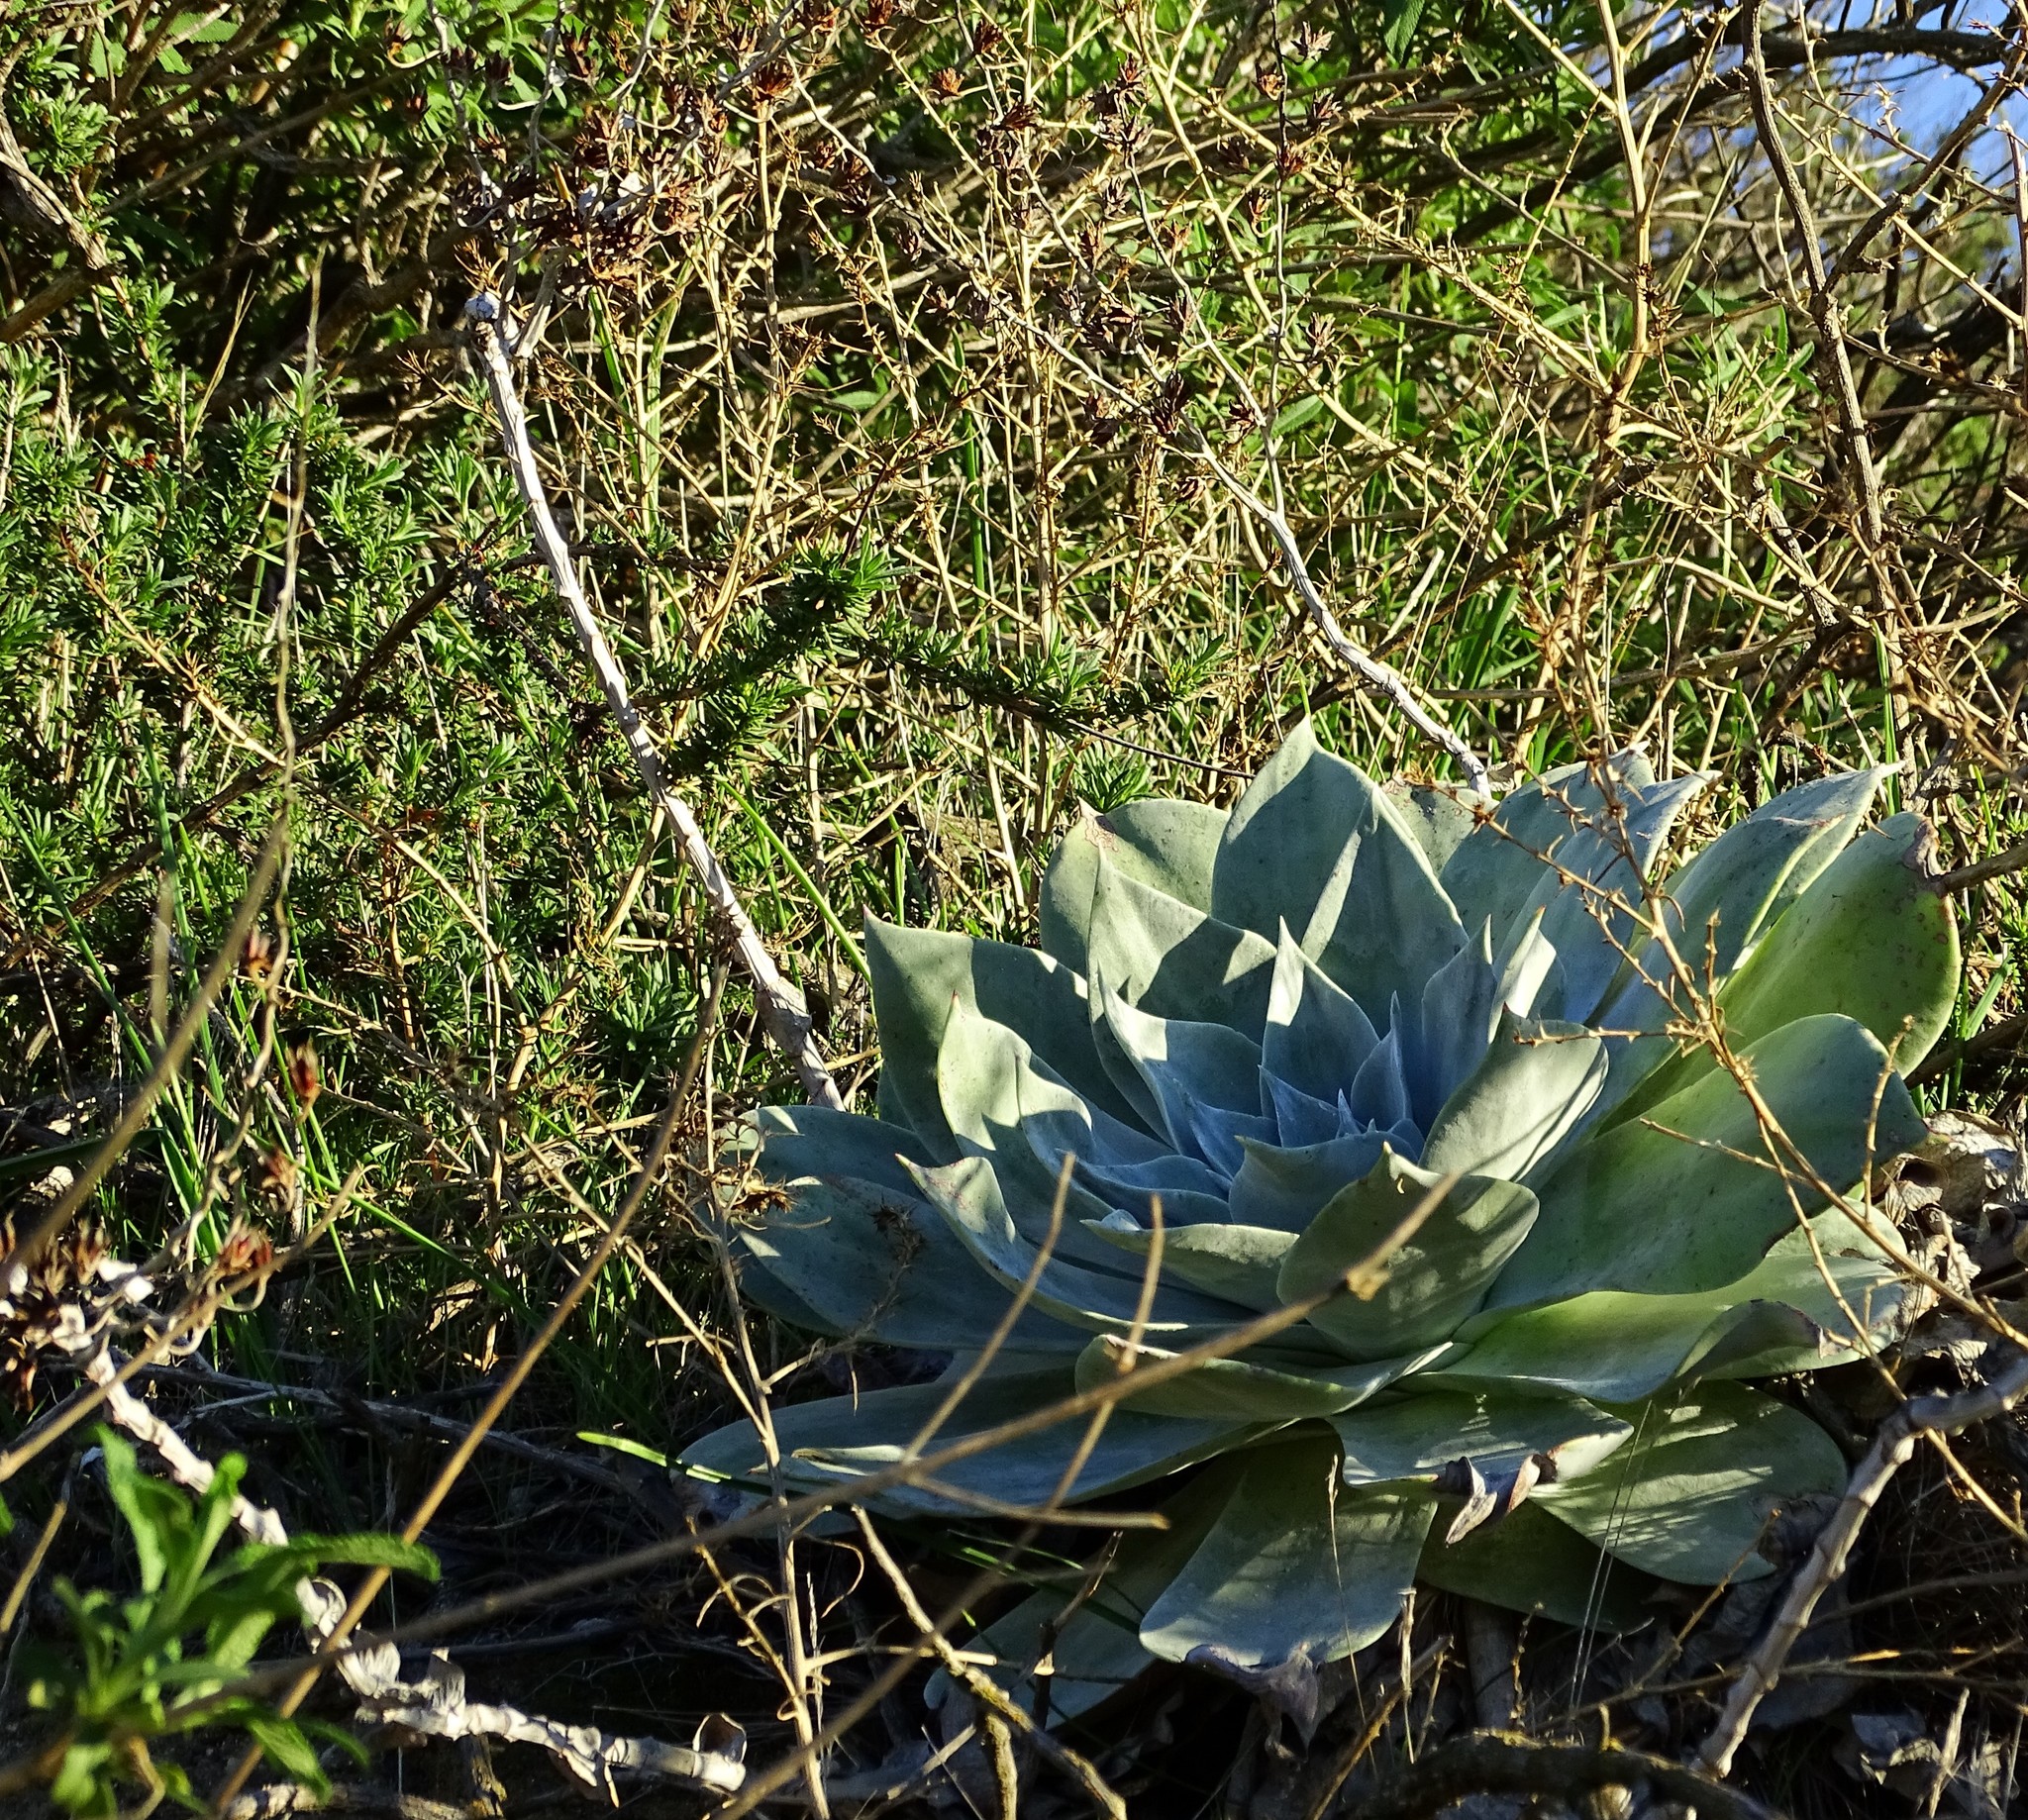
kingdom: Plantae
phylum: Tracheophyta
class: Magnoliopsida
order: Saxifragales
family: Crassulaceae
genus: Dudleya
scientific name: Dudleya pulverulenta
